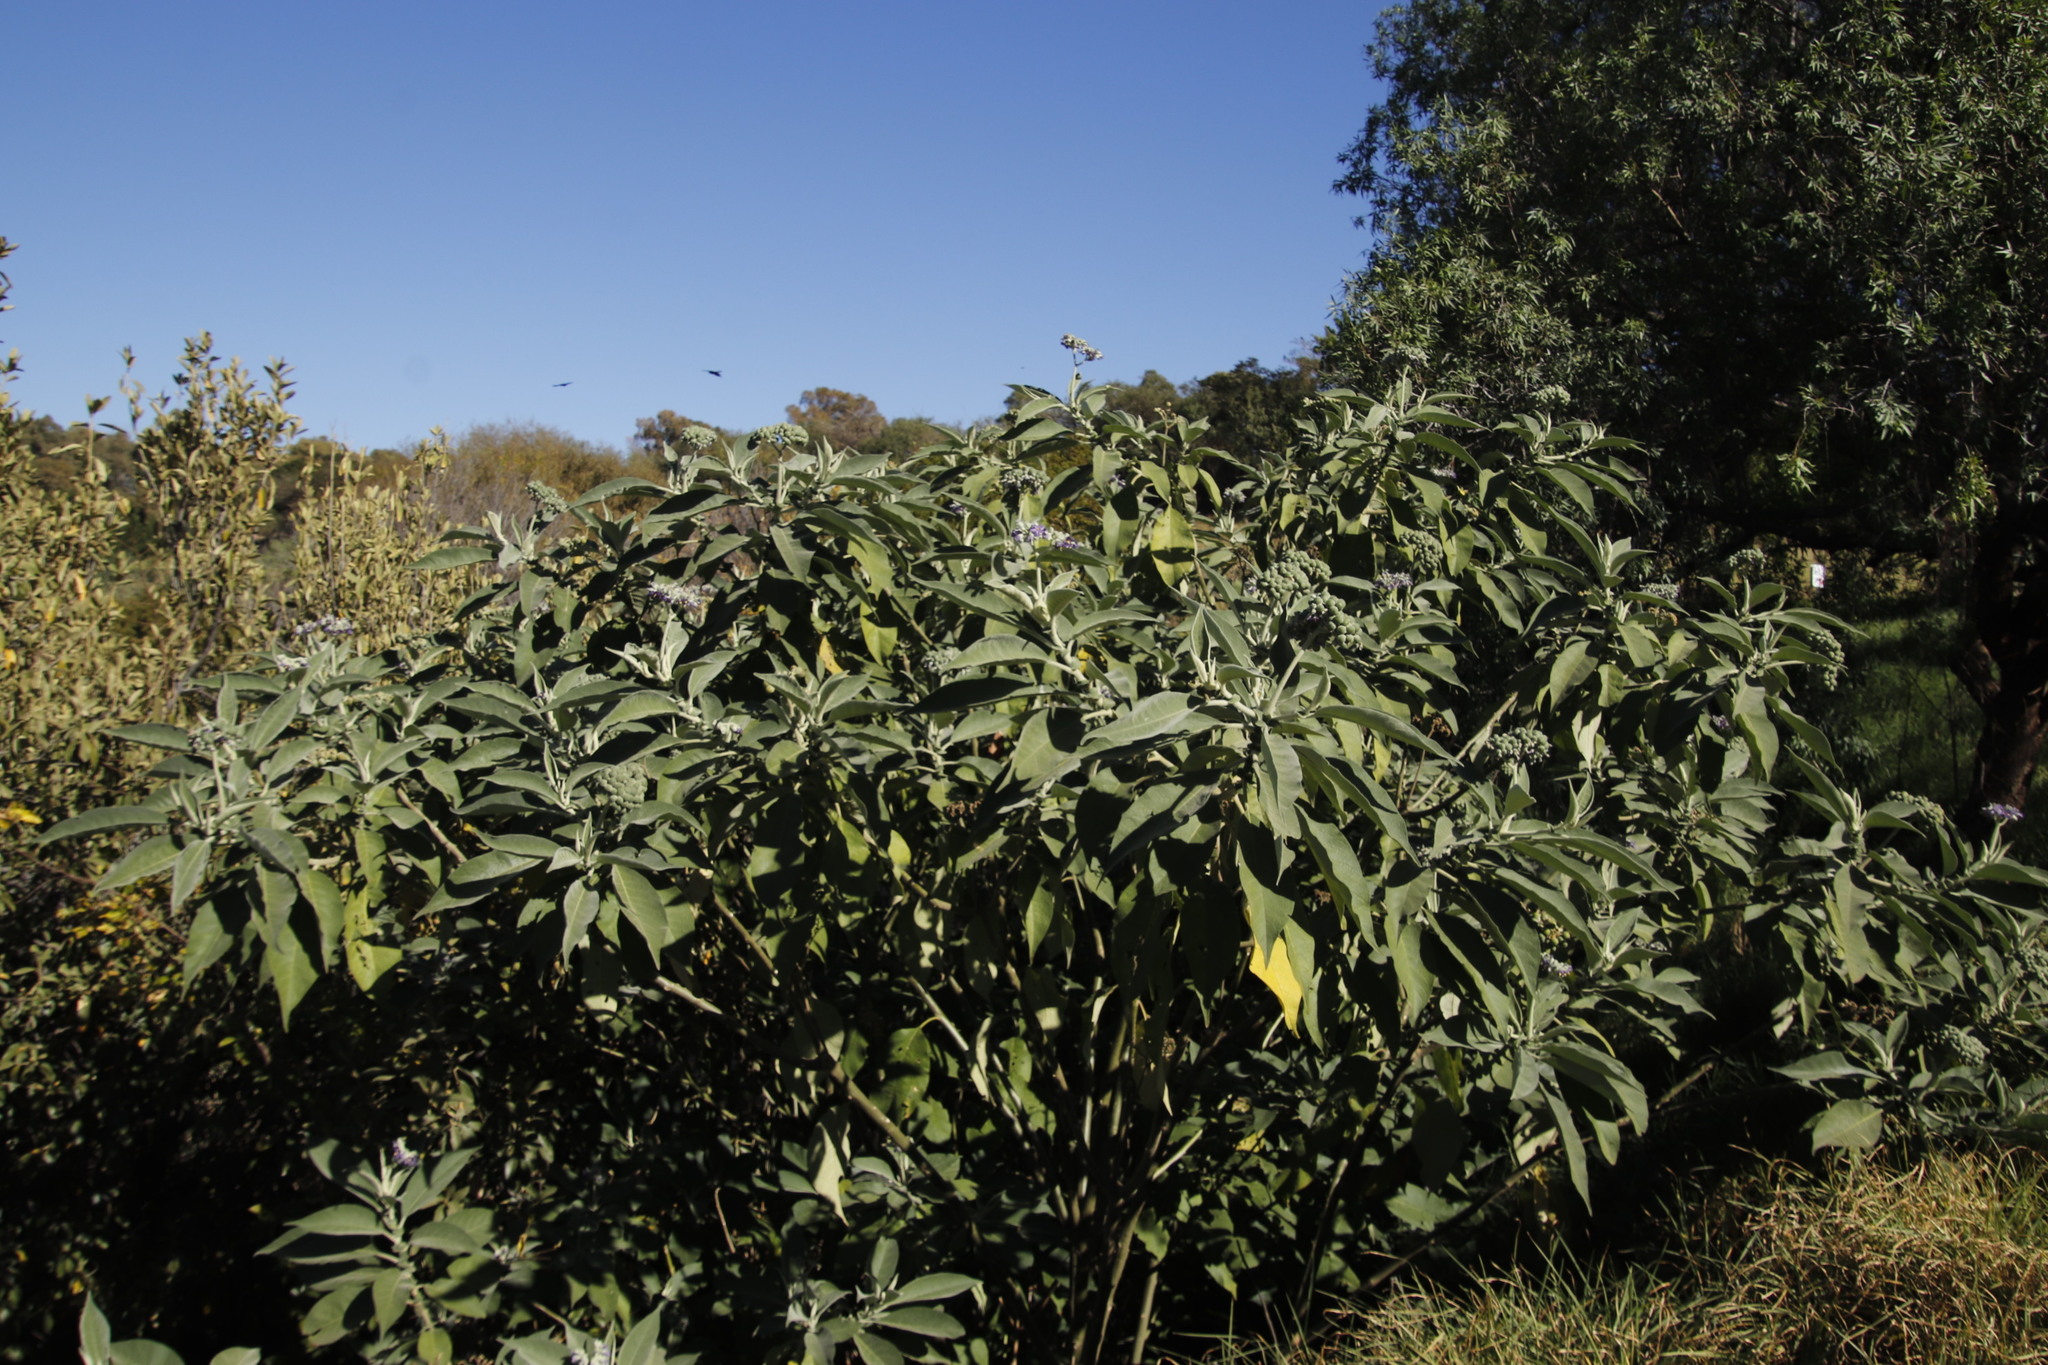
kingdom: Plantae
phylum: Tracheophyta
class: Magnoliopsida
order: Solanales
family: Solanaceae
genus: Solanum
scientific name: Solanum mauritianum
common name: Earleaf nightshade
